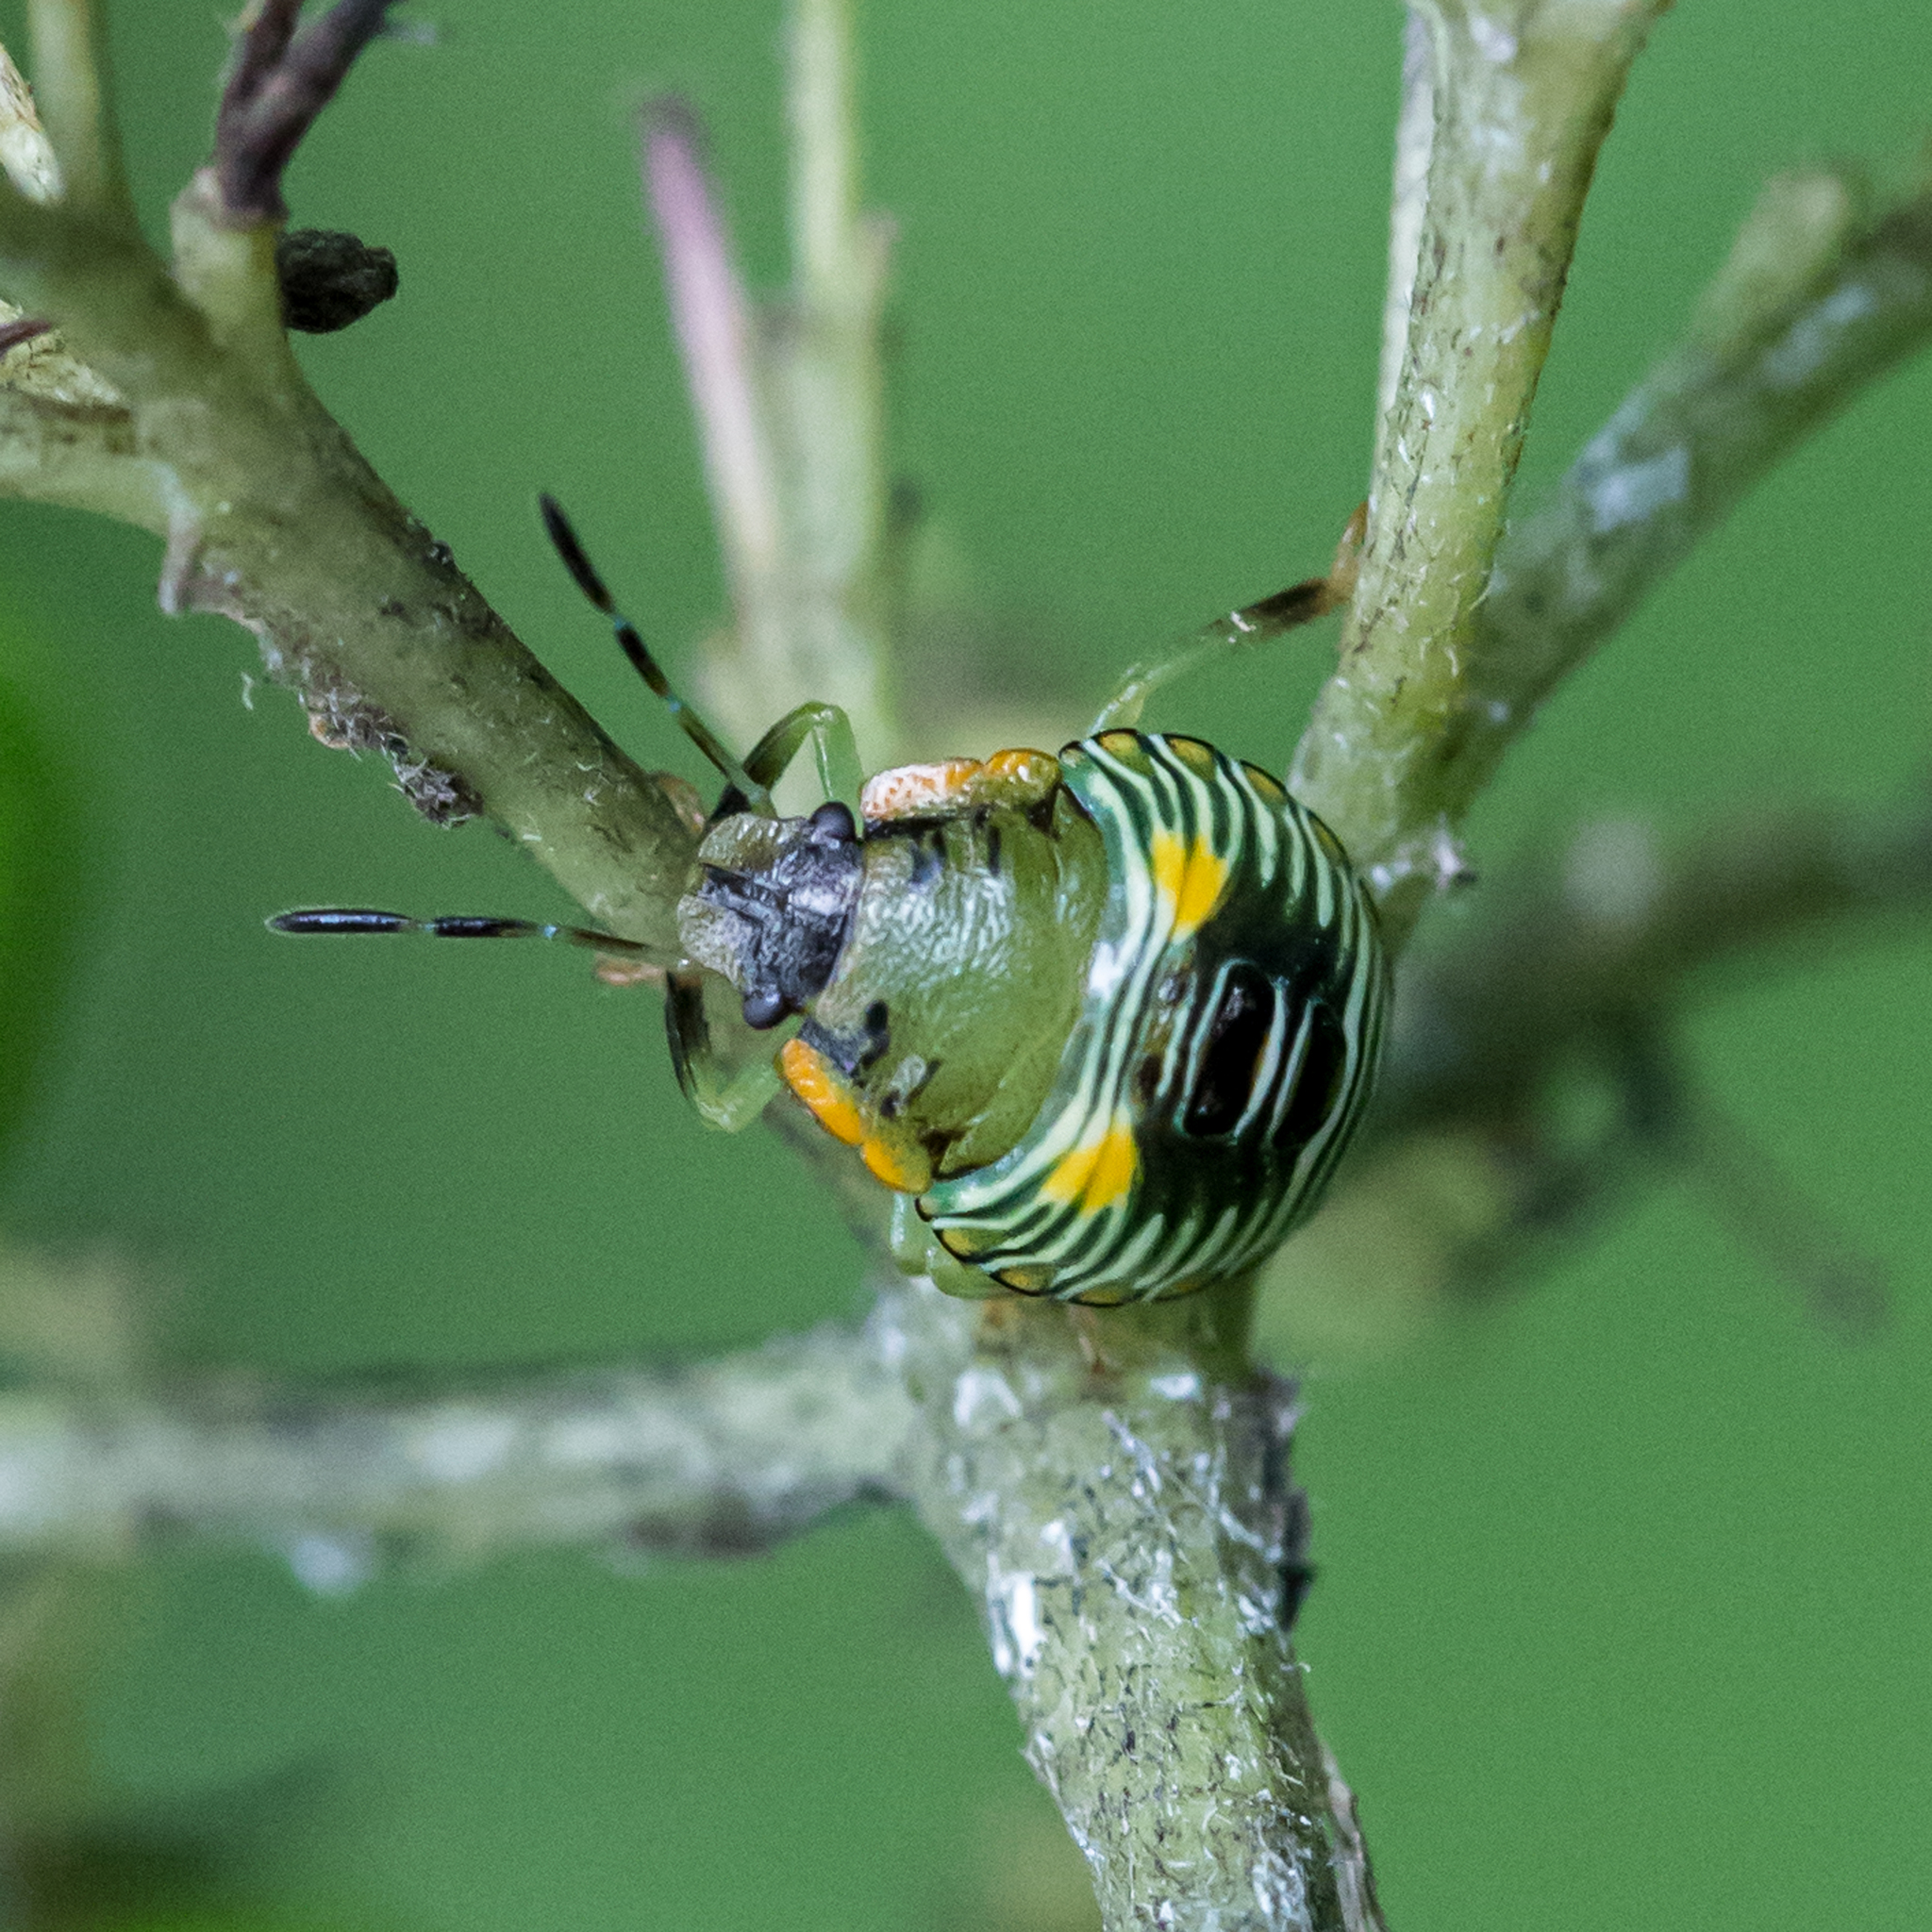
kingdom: Animalia
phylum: Arthropoda
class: Insecta
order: Hemiptera
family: Pentatomidae
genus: Chinavia
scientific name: Chinavia hilaris
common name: Green stink bug
